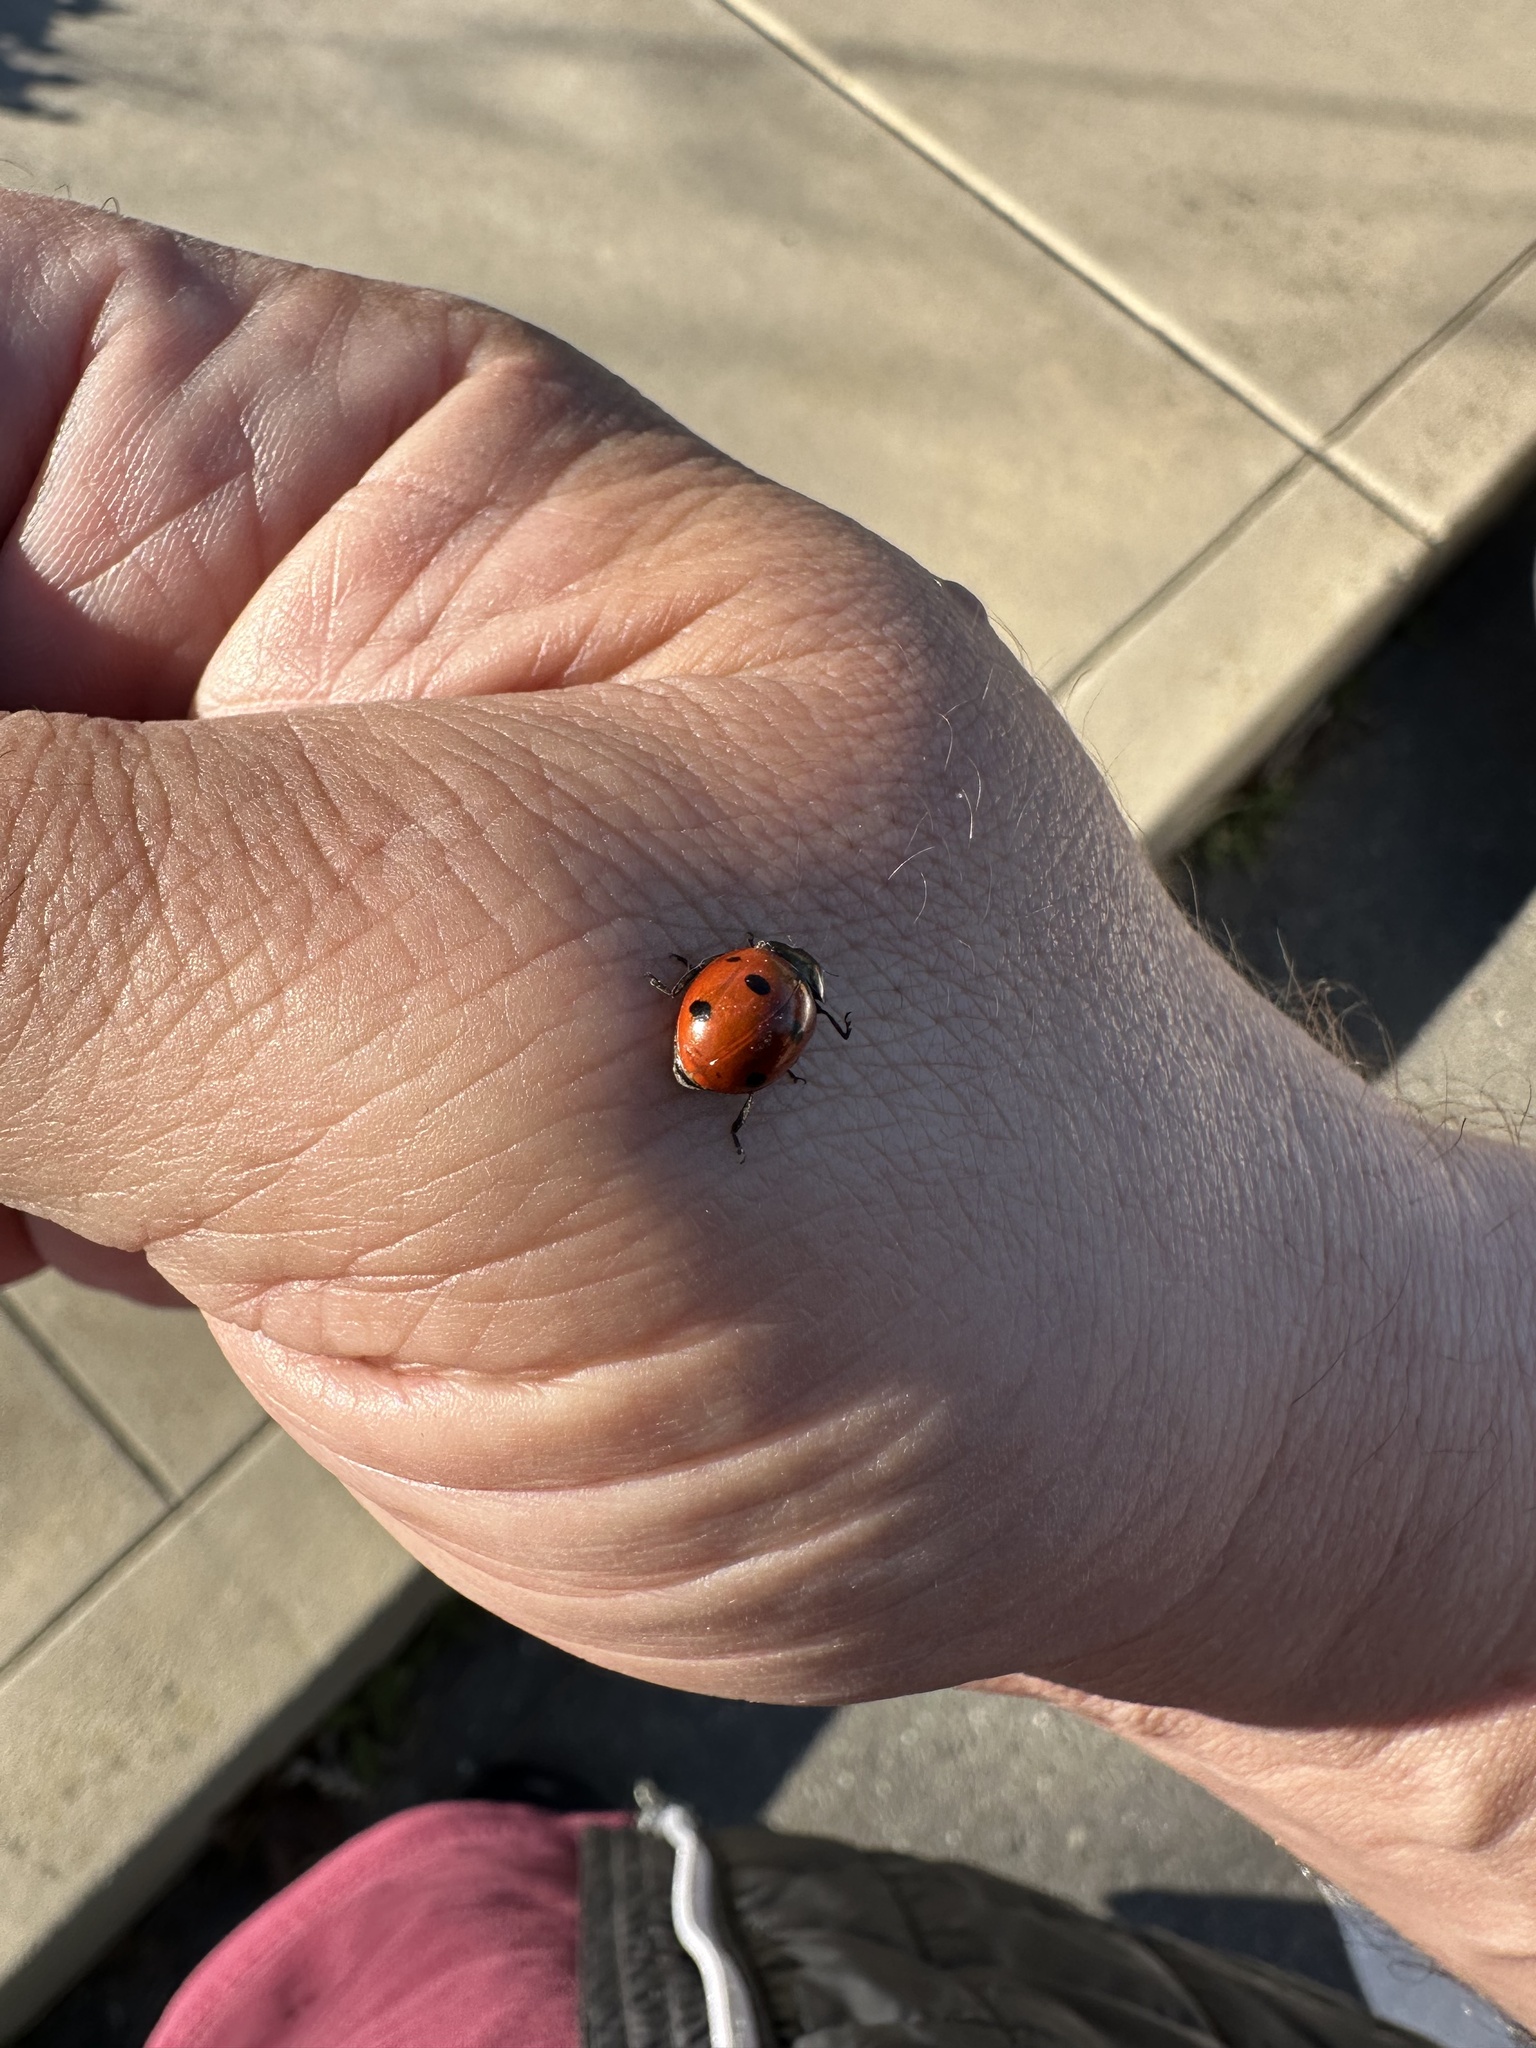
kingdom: Animalia
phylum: Arthropoda
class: Insecta
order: Coleoptera
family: Coccinellidae
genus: Coccinella
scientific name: Coccinella septempunctata
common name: Sevenspotted lady beetle
